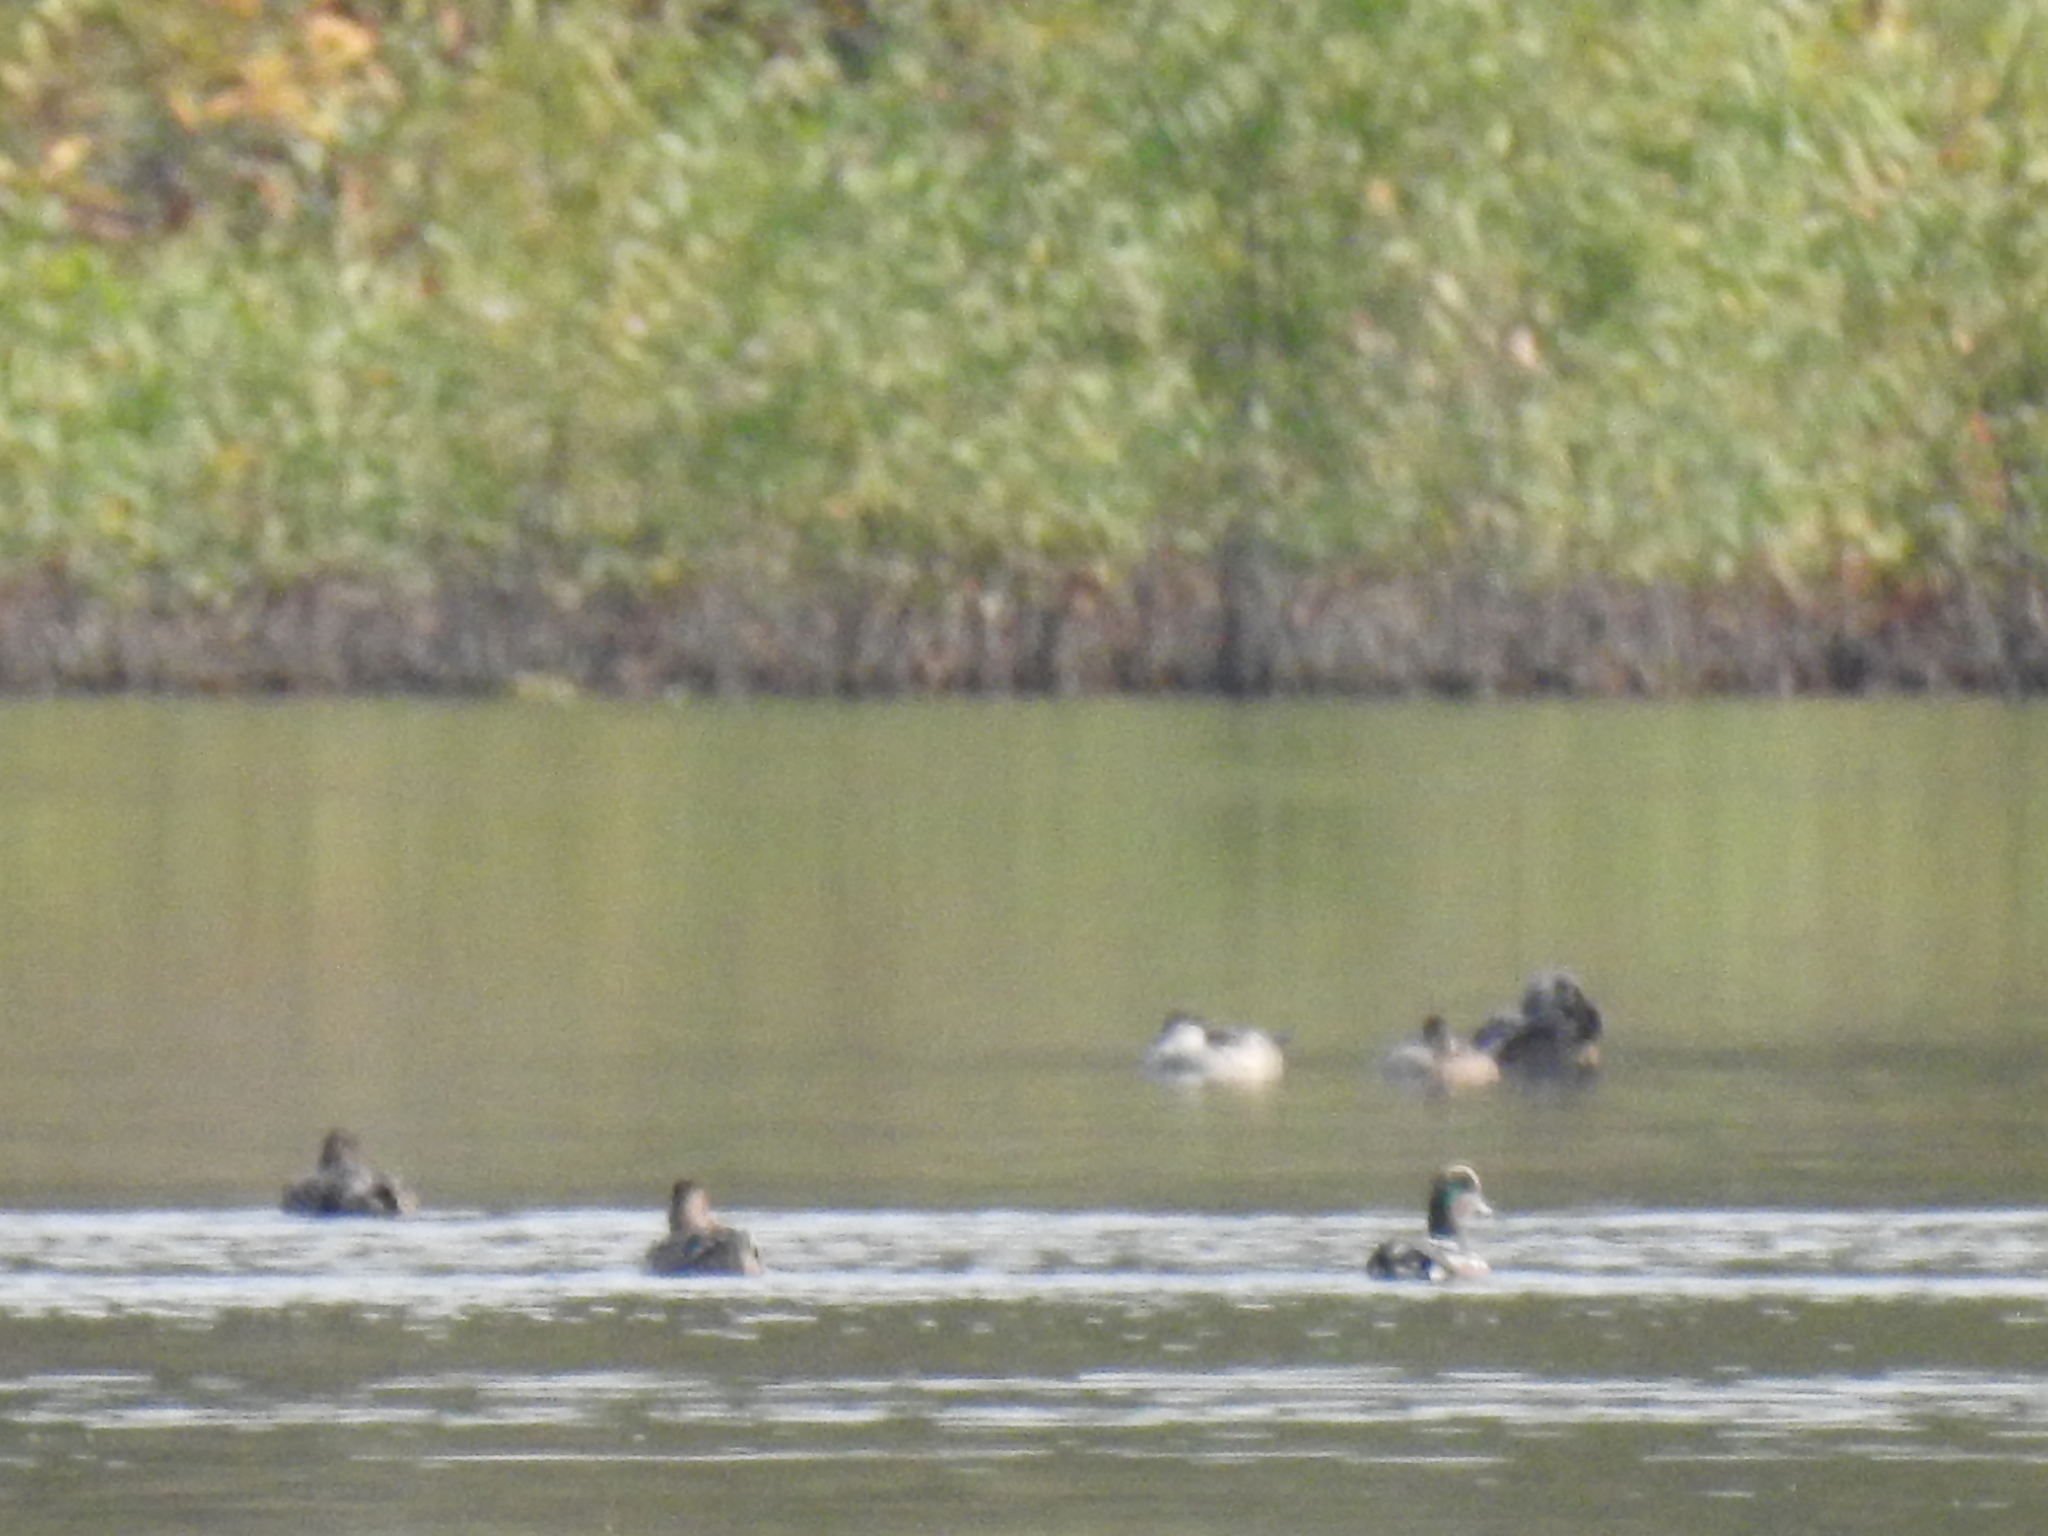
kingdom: Animalia
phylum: Chordata
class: Aves
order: Gruiformes
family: Rallidae
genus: Fulica
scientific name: Fulica americana
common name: American coot
